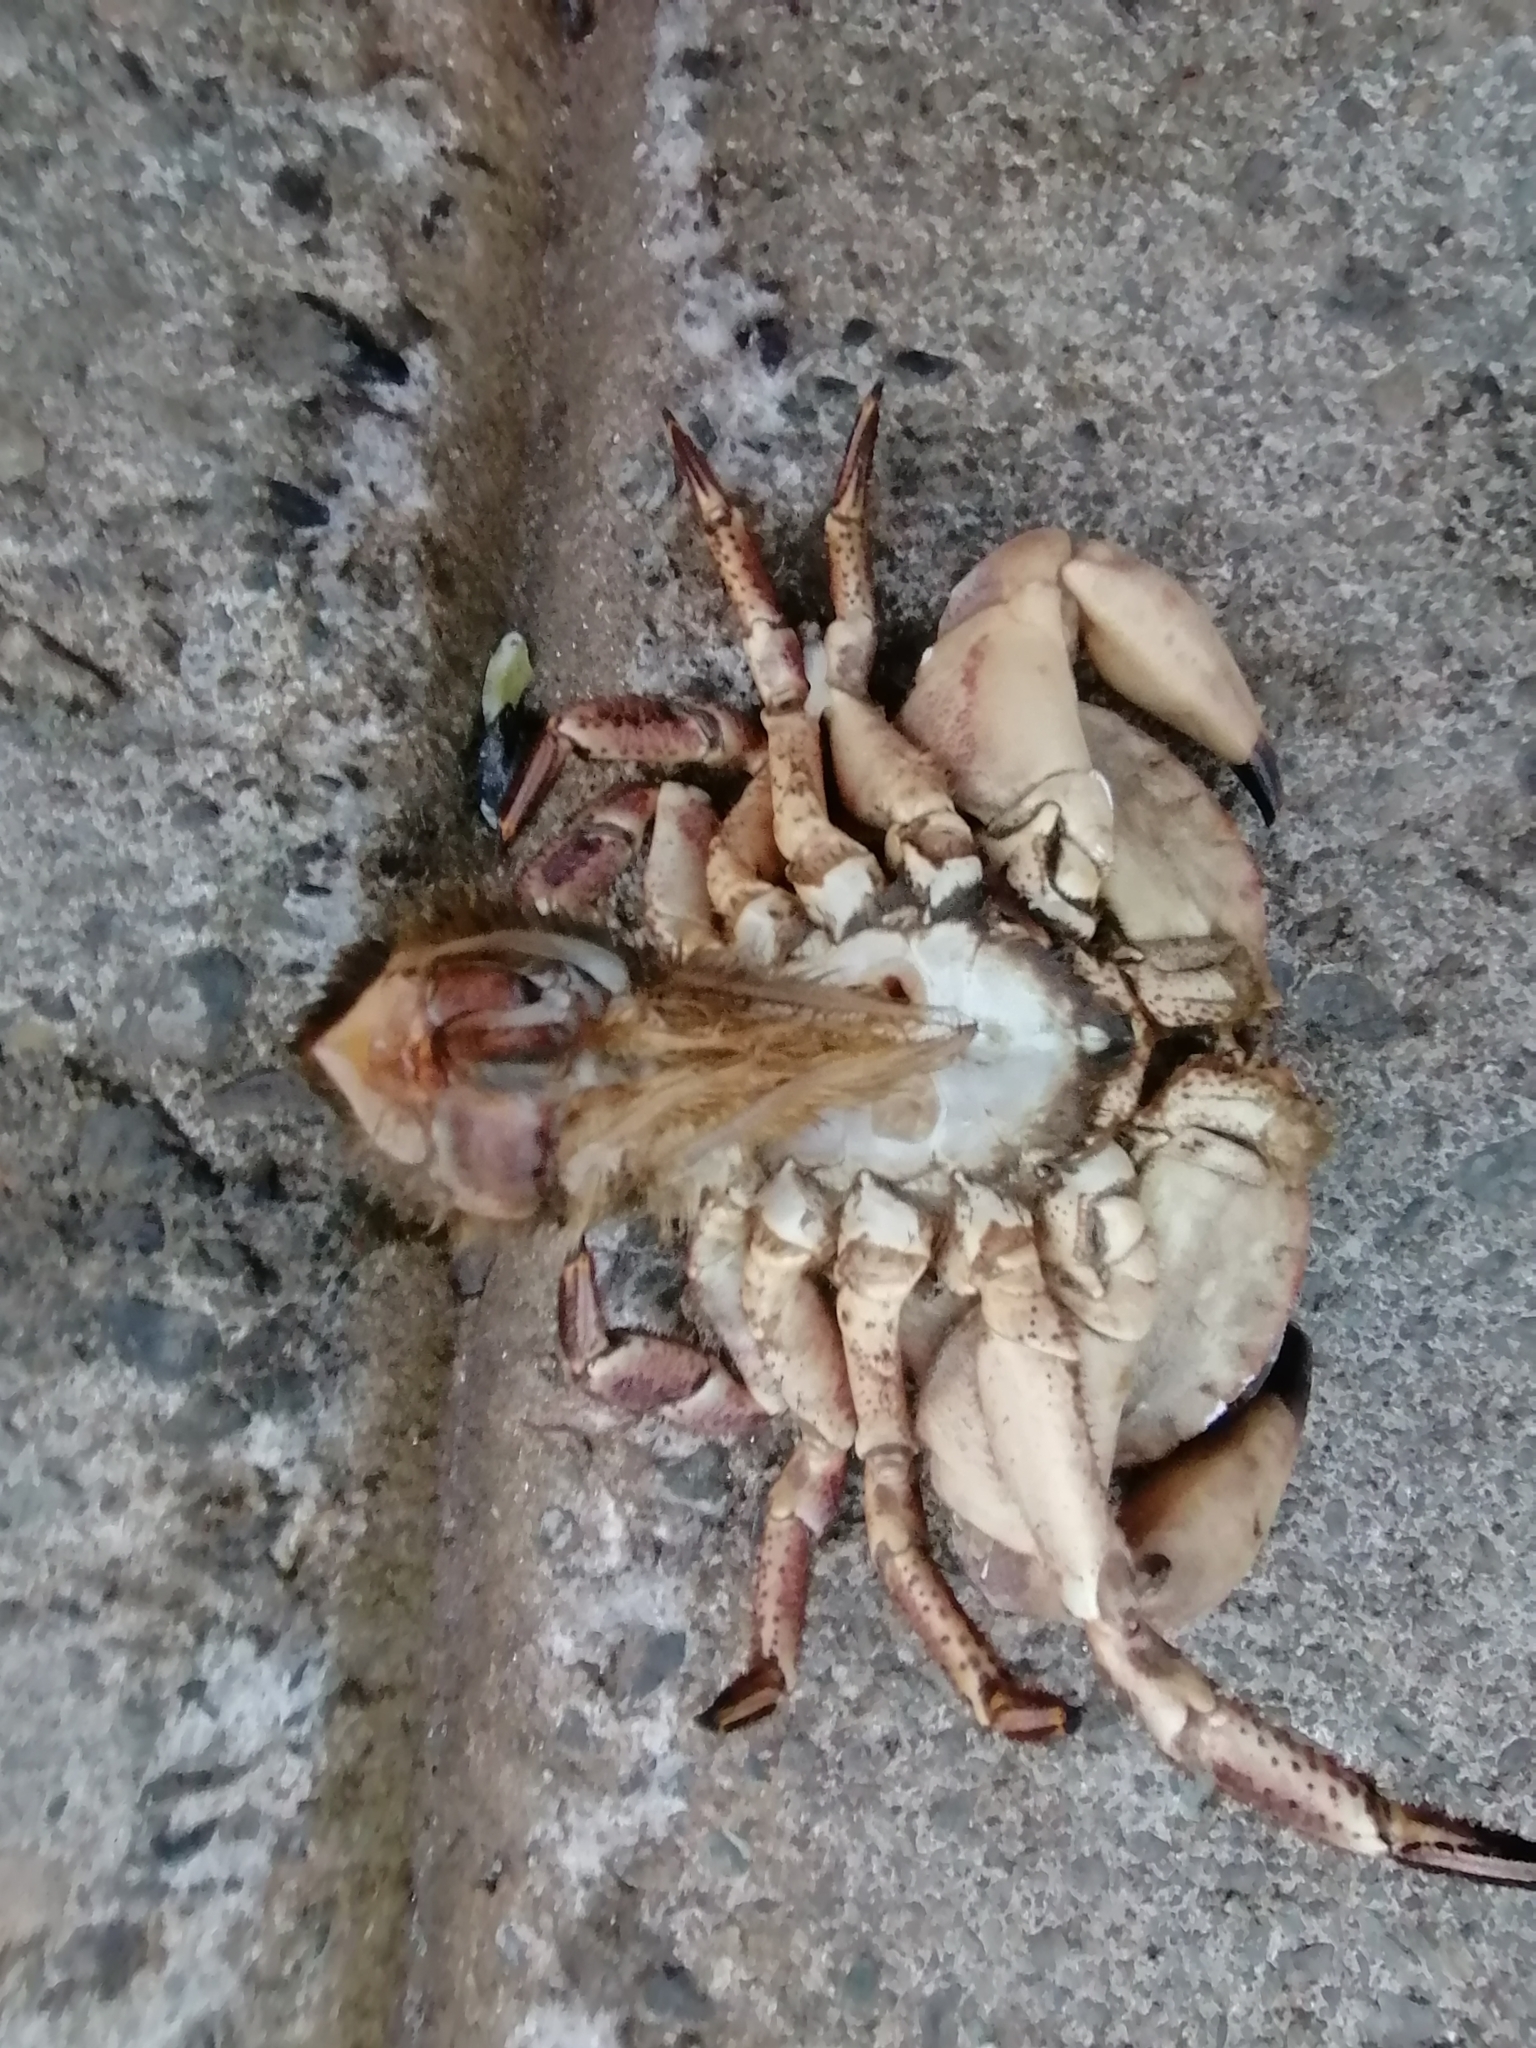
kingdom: Animalia
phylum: Arthropoda
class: Malacostraca
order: Decapoda
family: Cancridae
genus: Cancer
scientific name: Cancer pagurus
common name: Edible crab
